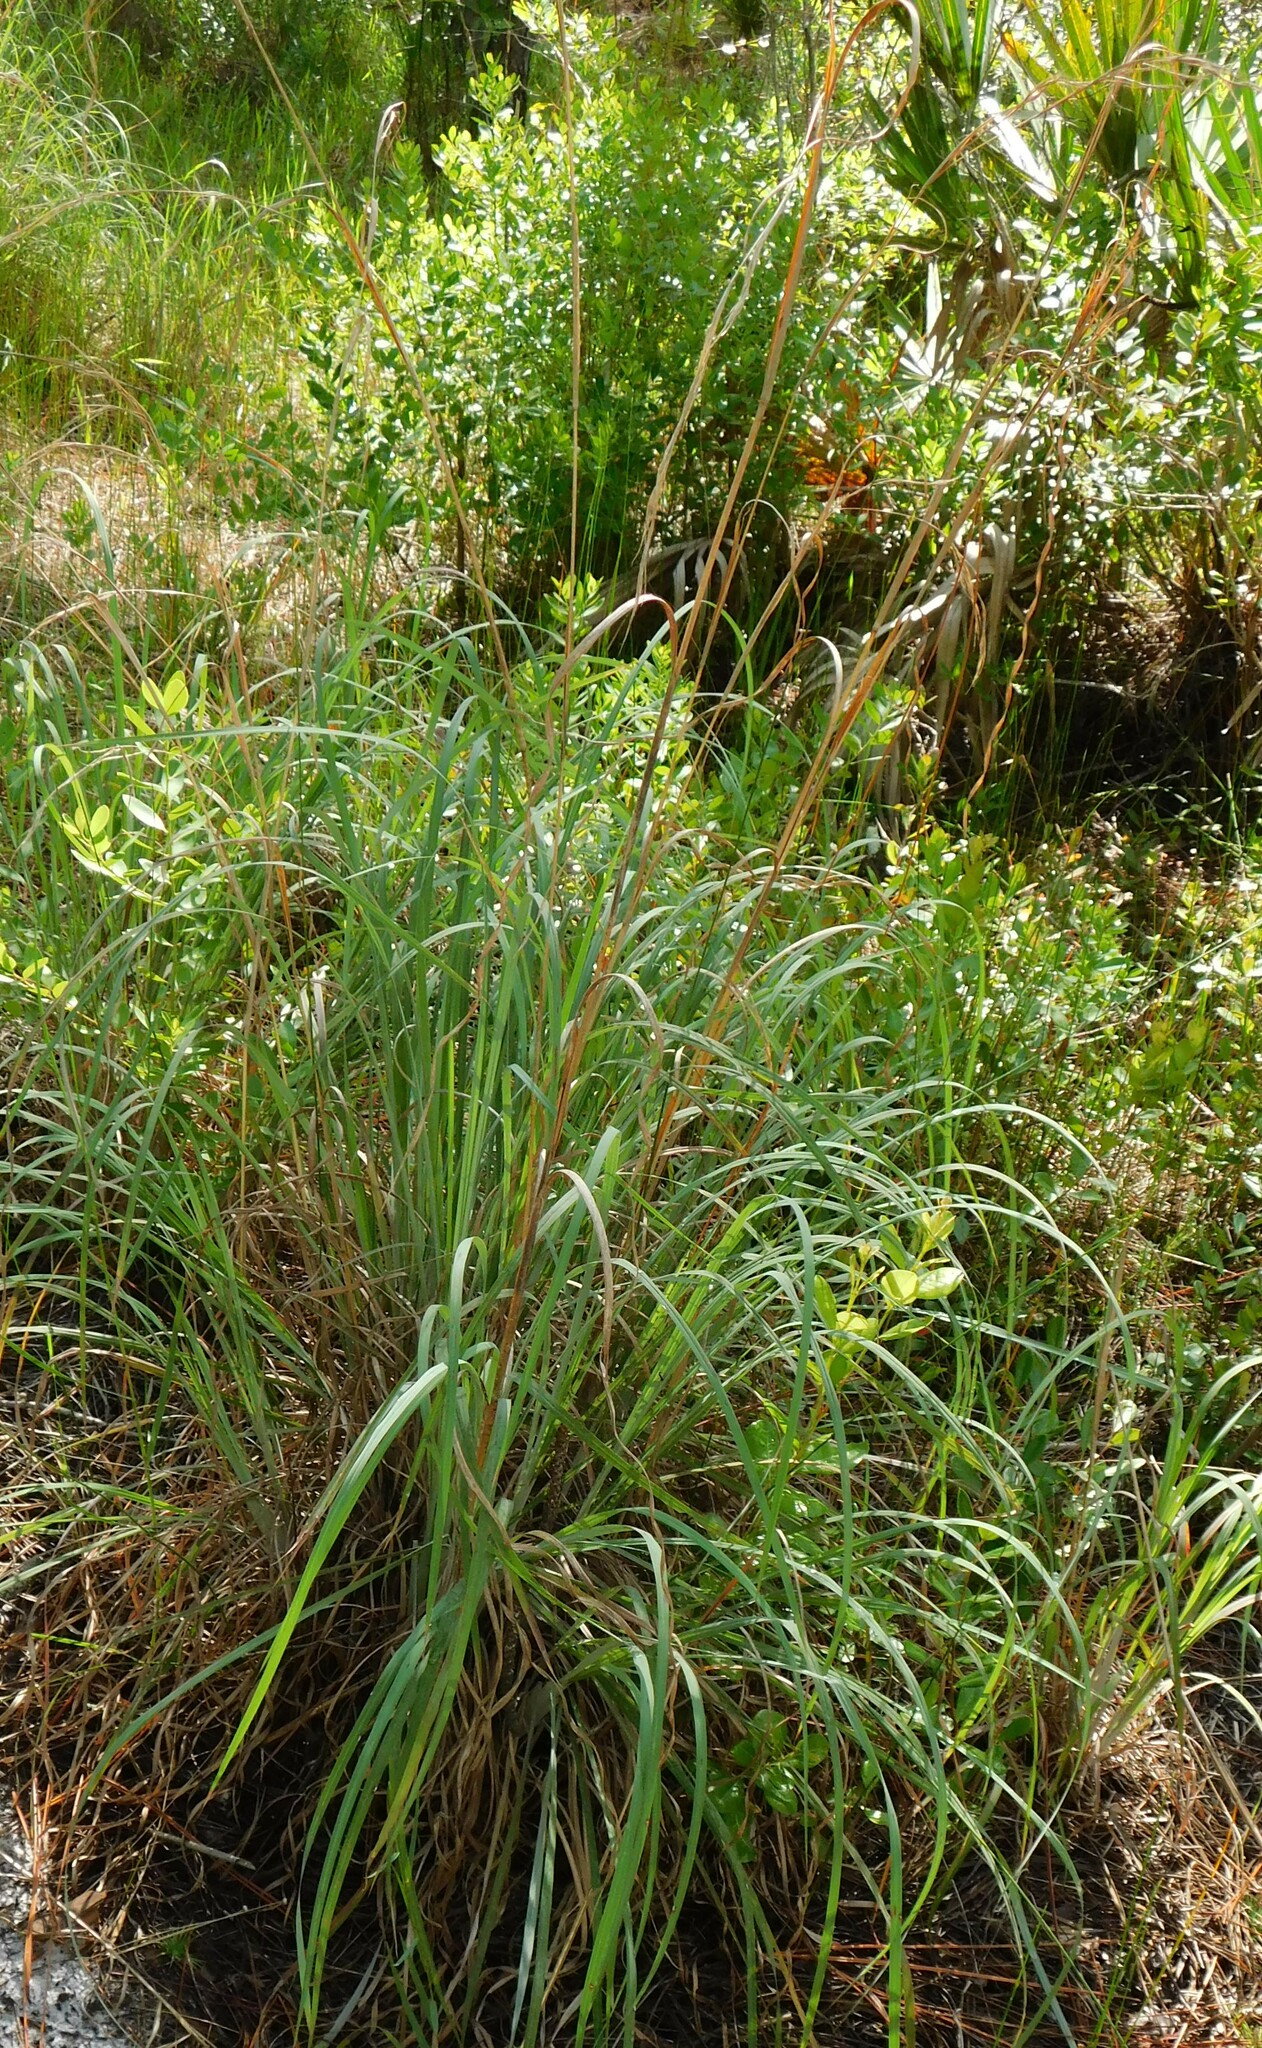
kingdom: Plantae
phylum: Tracheophyta
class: Liliopsida
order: Poales
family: Poaceae
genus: Andropogon
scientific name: Andropogon tenuispatheus
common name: Bushy bluestem
